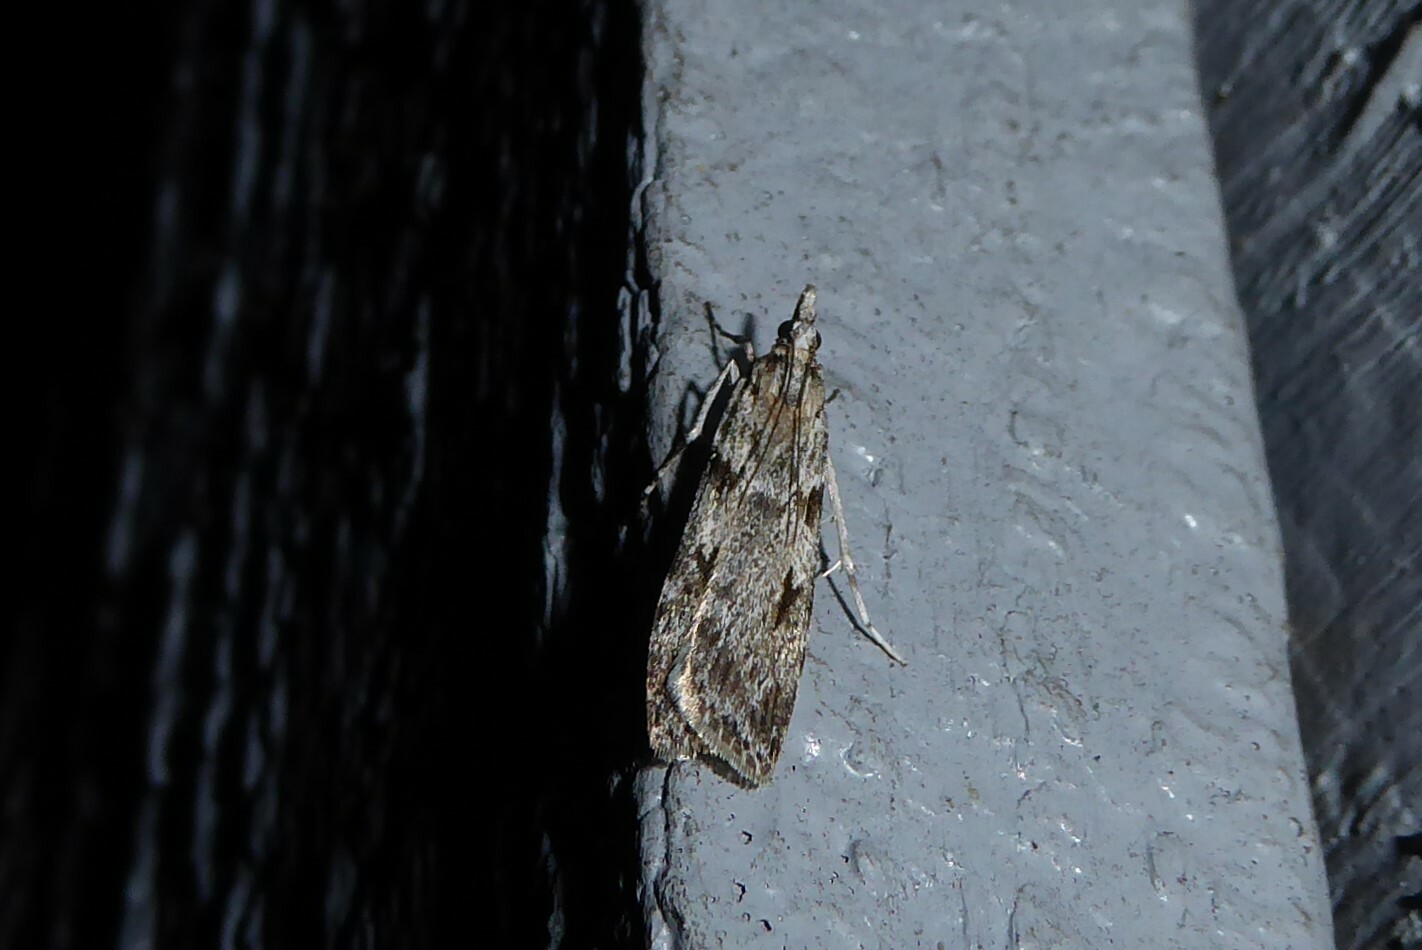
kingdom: Animalia
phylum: Arthropoda
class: Insecta
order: Lepidoptera
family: Crambidae
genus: Scoparia
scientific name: Scoparia halopis
